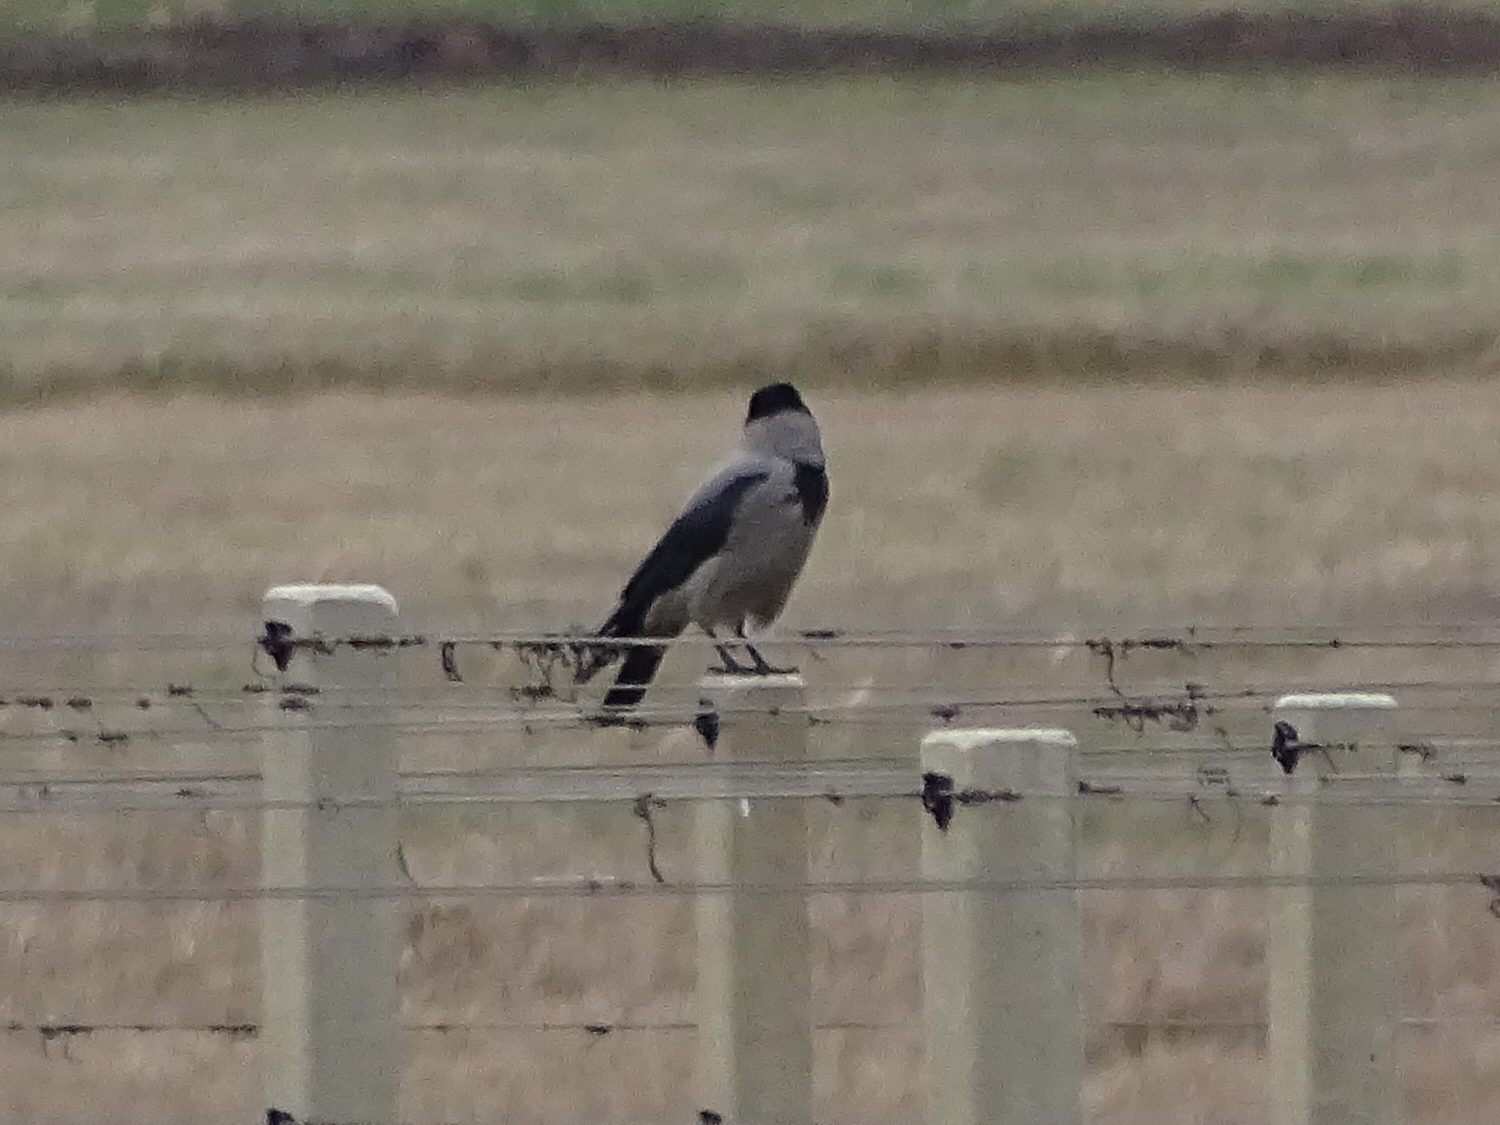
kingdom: Animalia
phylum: Chordata
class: Aves
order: Passeriformes
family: Corvidae
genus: Corvus
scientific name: Corvus cornix
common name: Hooded crow
